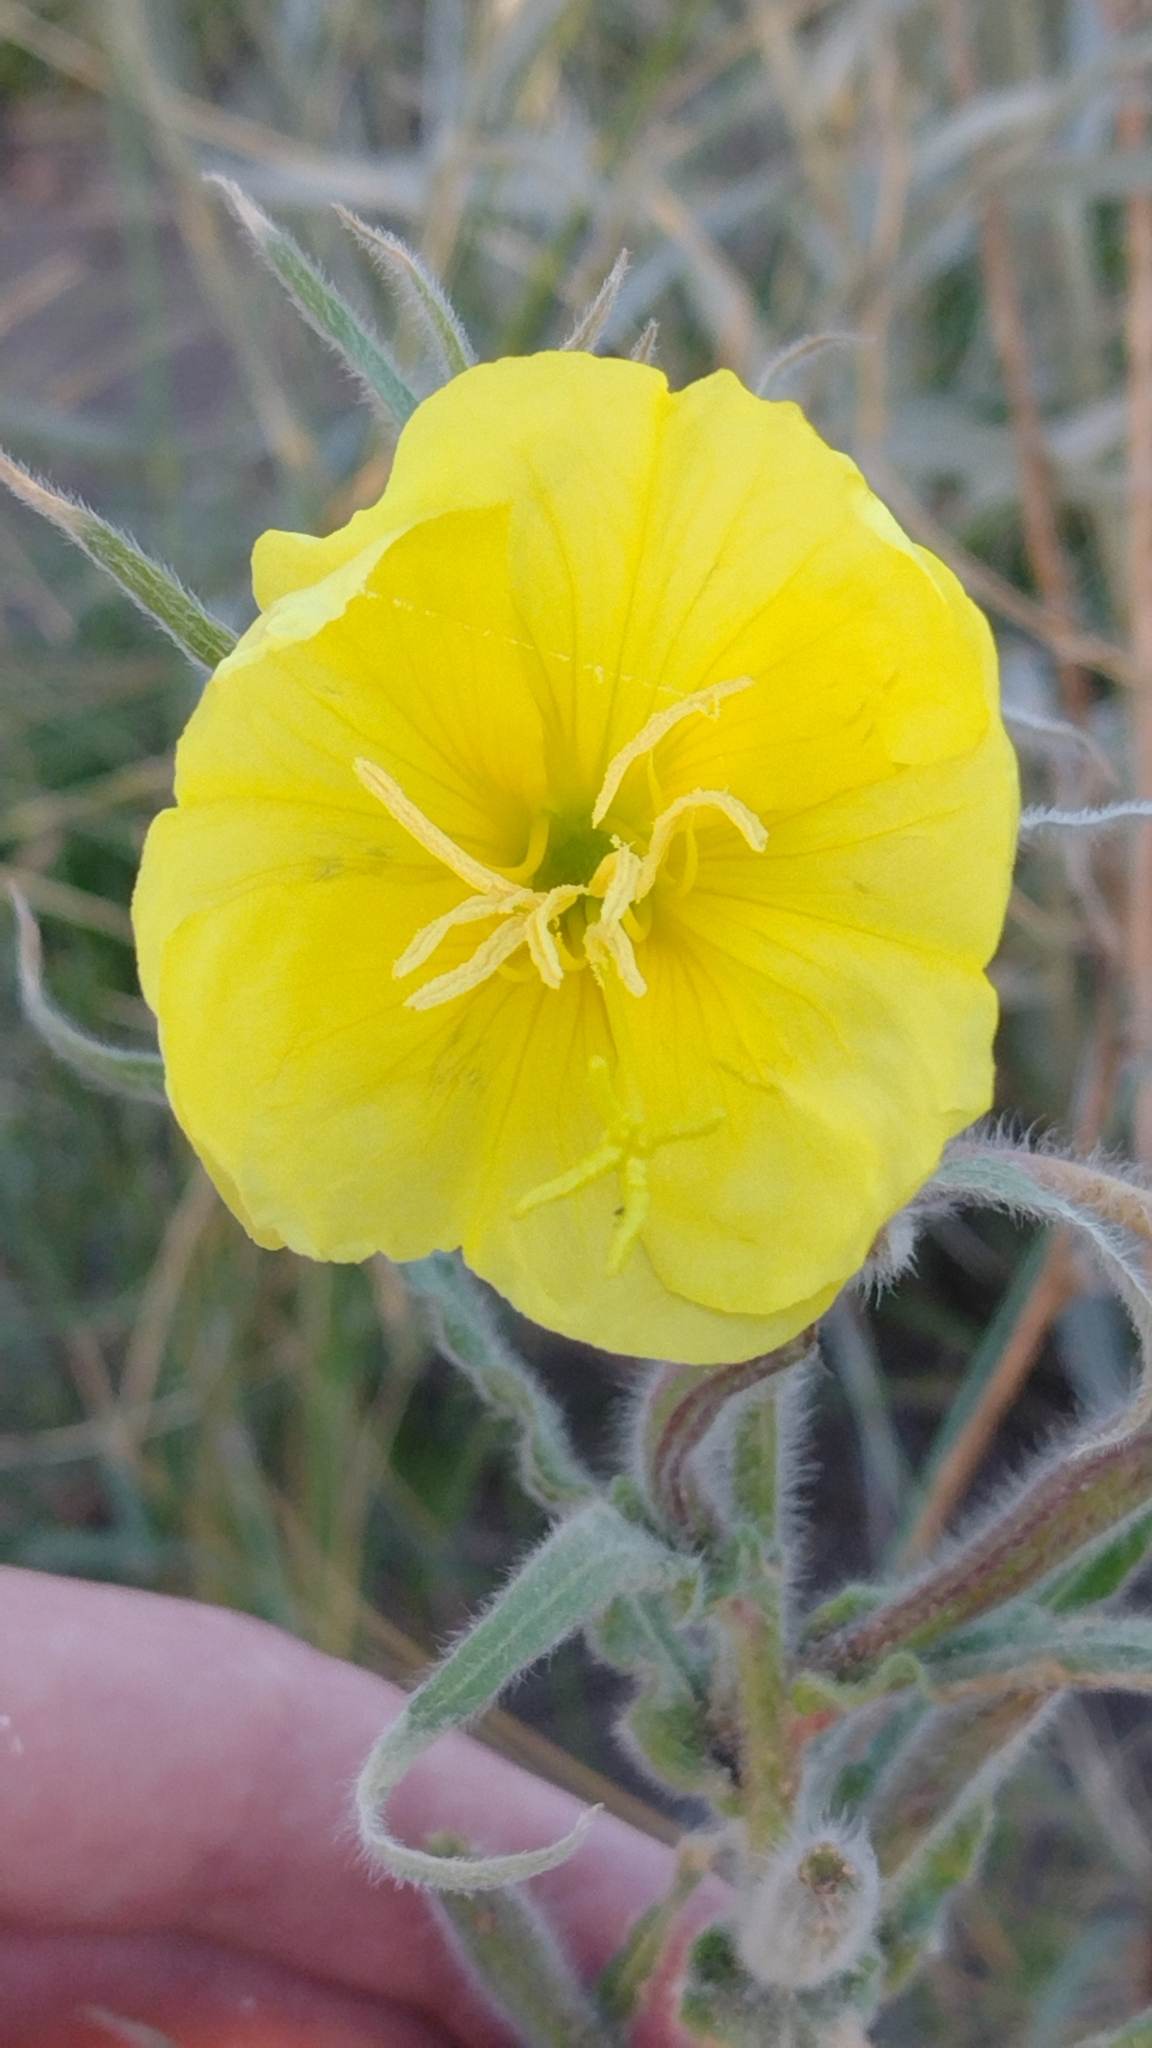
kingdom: Plantae
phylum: Tracheophyta
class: Magnoliopsida
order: Myrtales
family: Onagraceae
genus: Oenothera
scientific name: Oenothera affinis
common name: Longflower evening primrose
